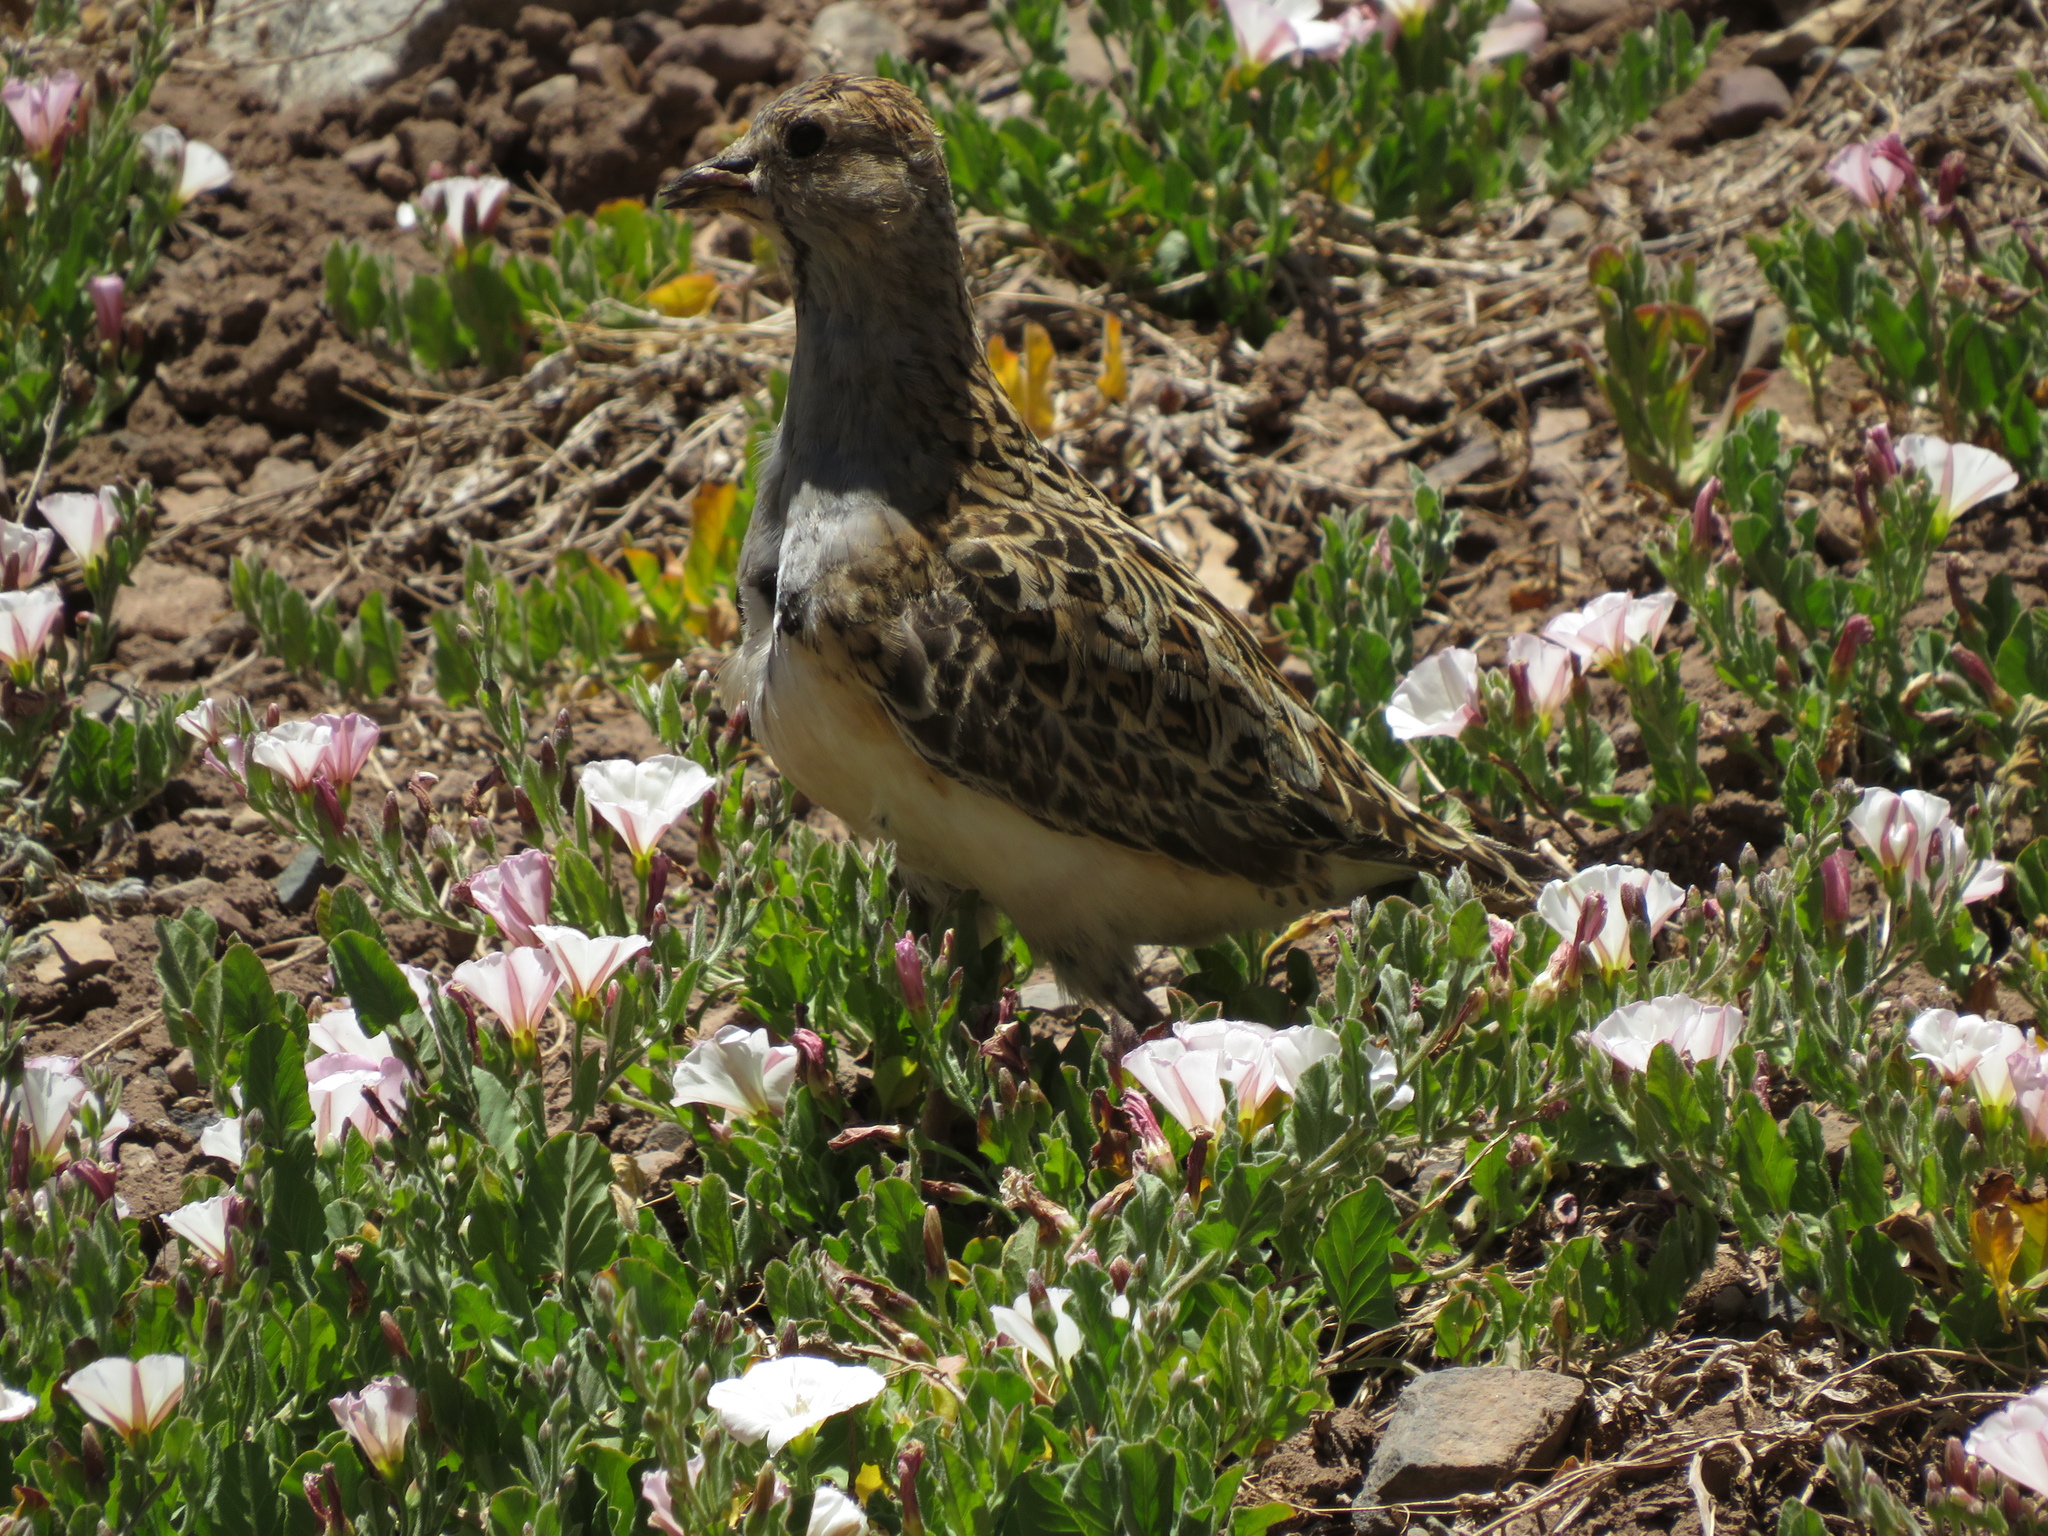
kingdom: Animalia
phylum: Chordata
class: Aves
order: Charadriiformes
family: Thinocoridae
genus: Thinocorus
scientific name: Thinocorus orbignyianus
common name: Grey-breasted seedsnipe
